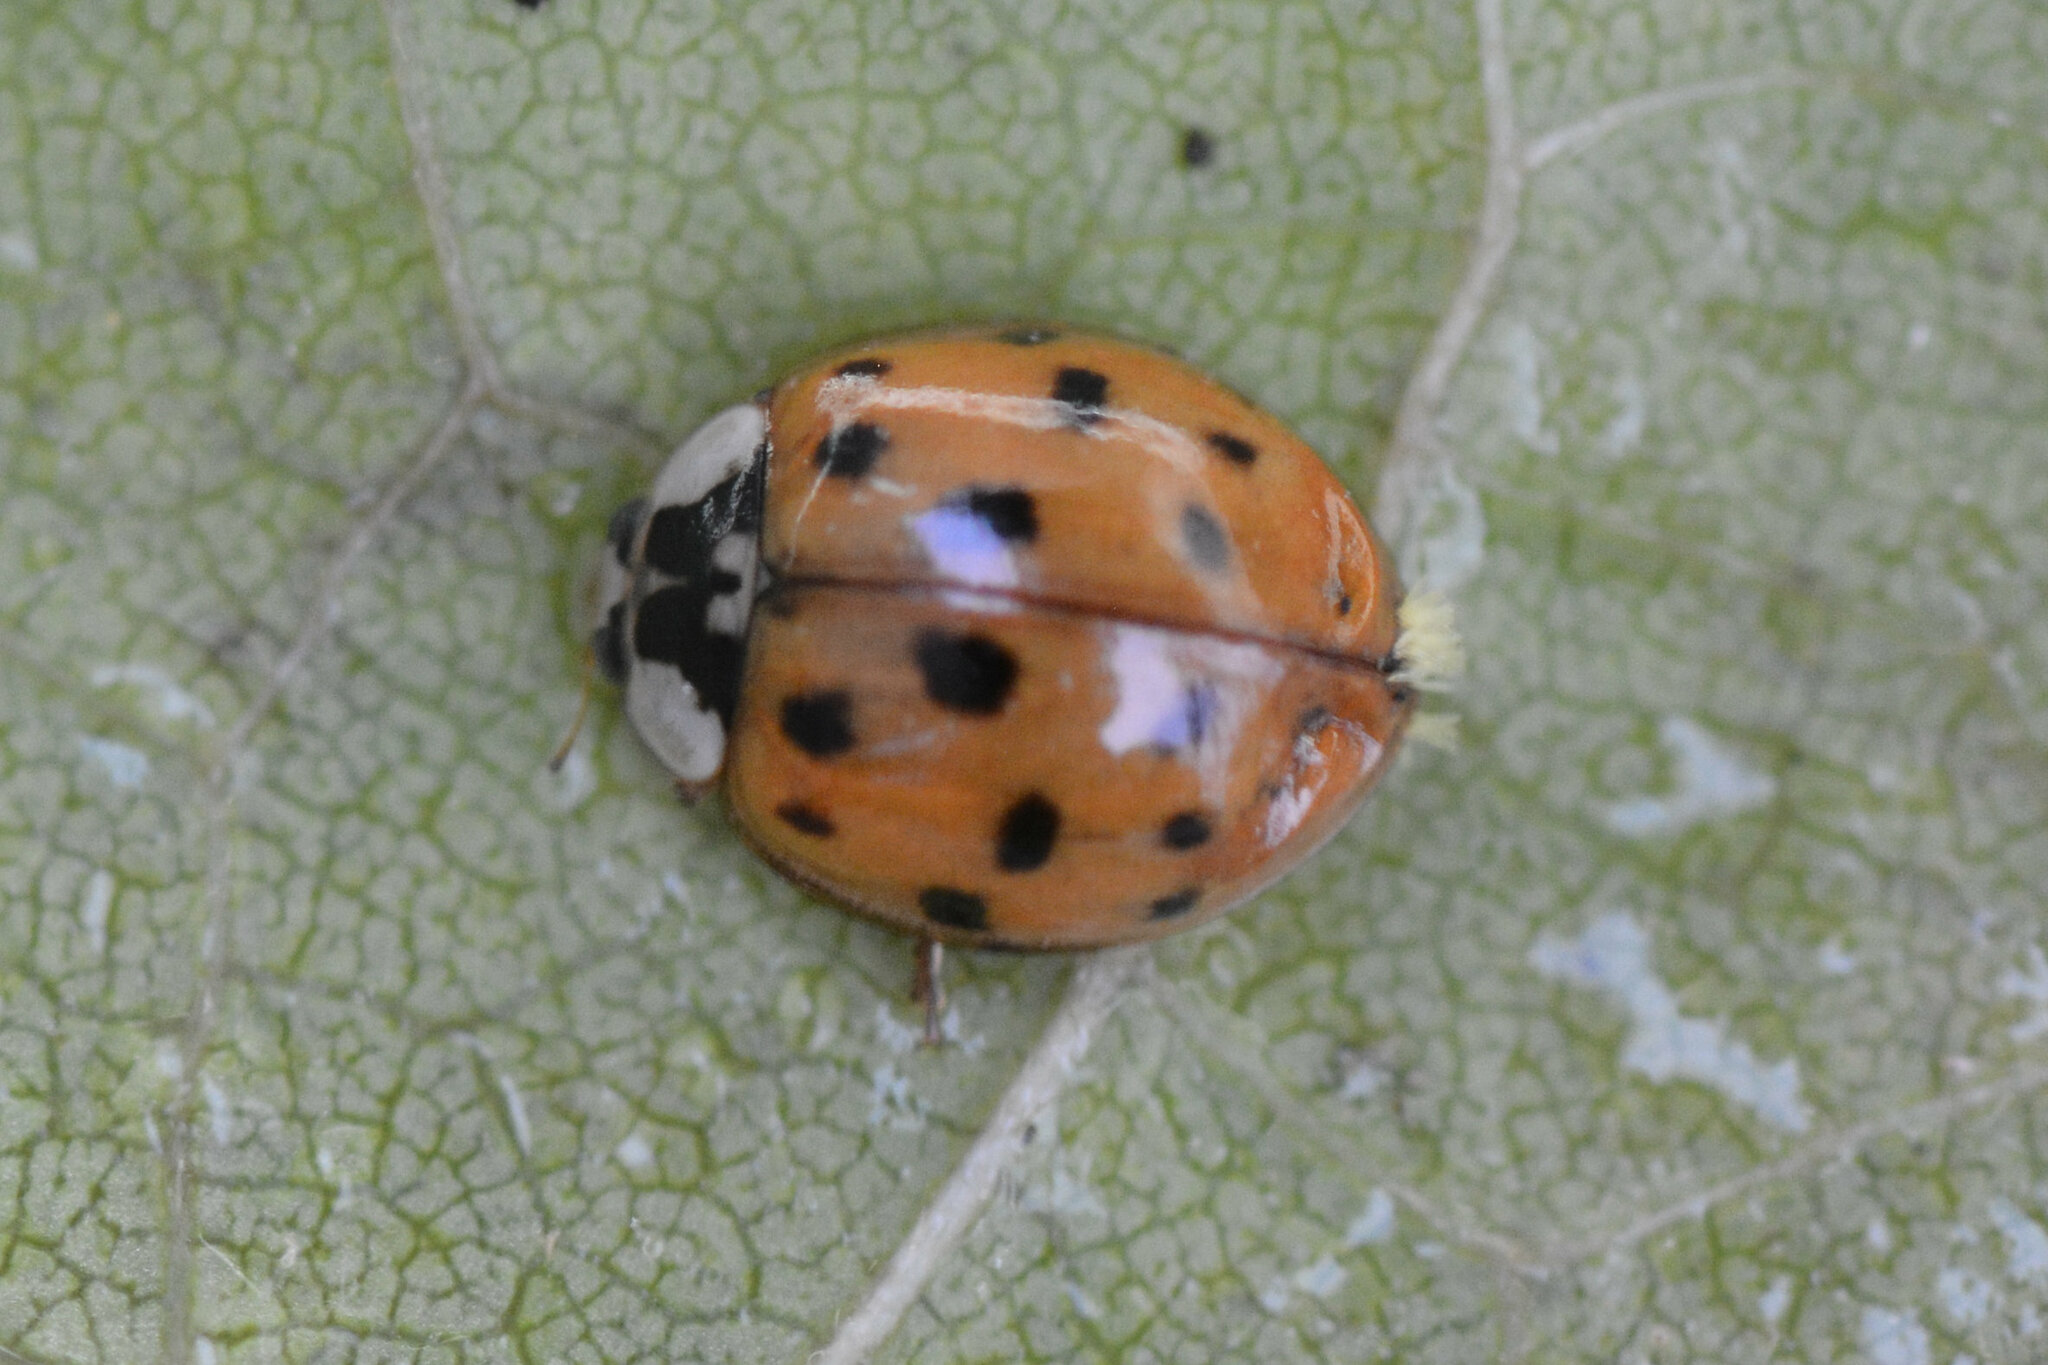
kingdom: Animalia
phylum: Arthropoda
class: Insecta
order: Coleoptera
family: Coccinellidae
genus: Harmonia
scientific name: Harmonia axyridis
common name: Harlequin ladybird
